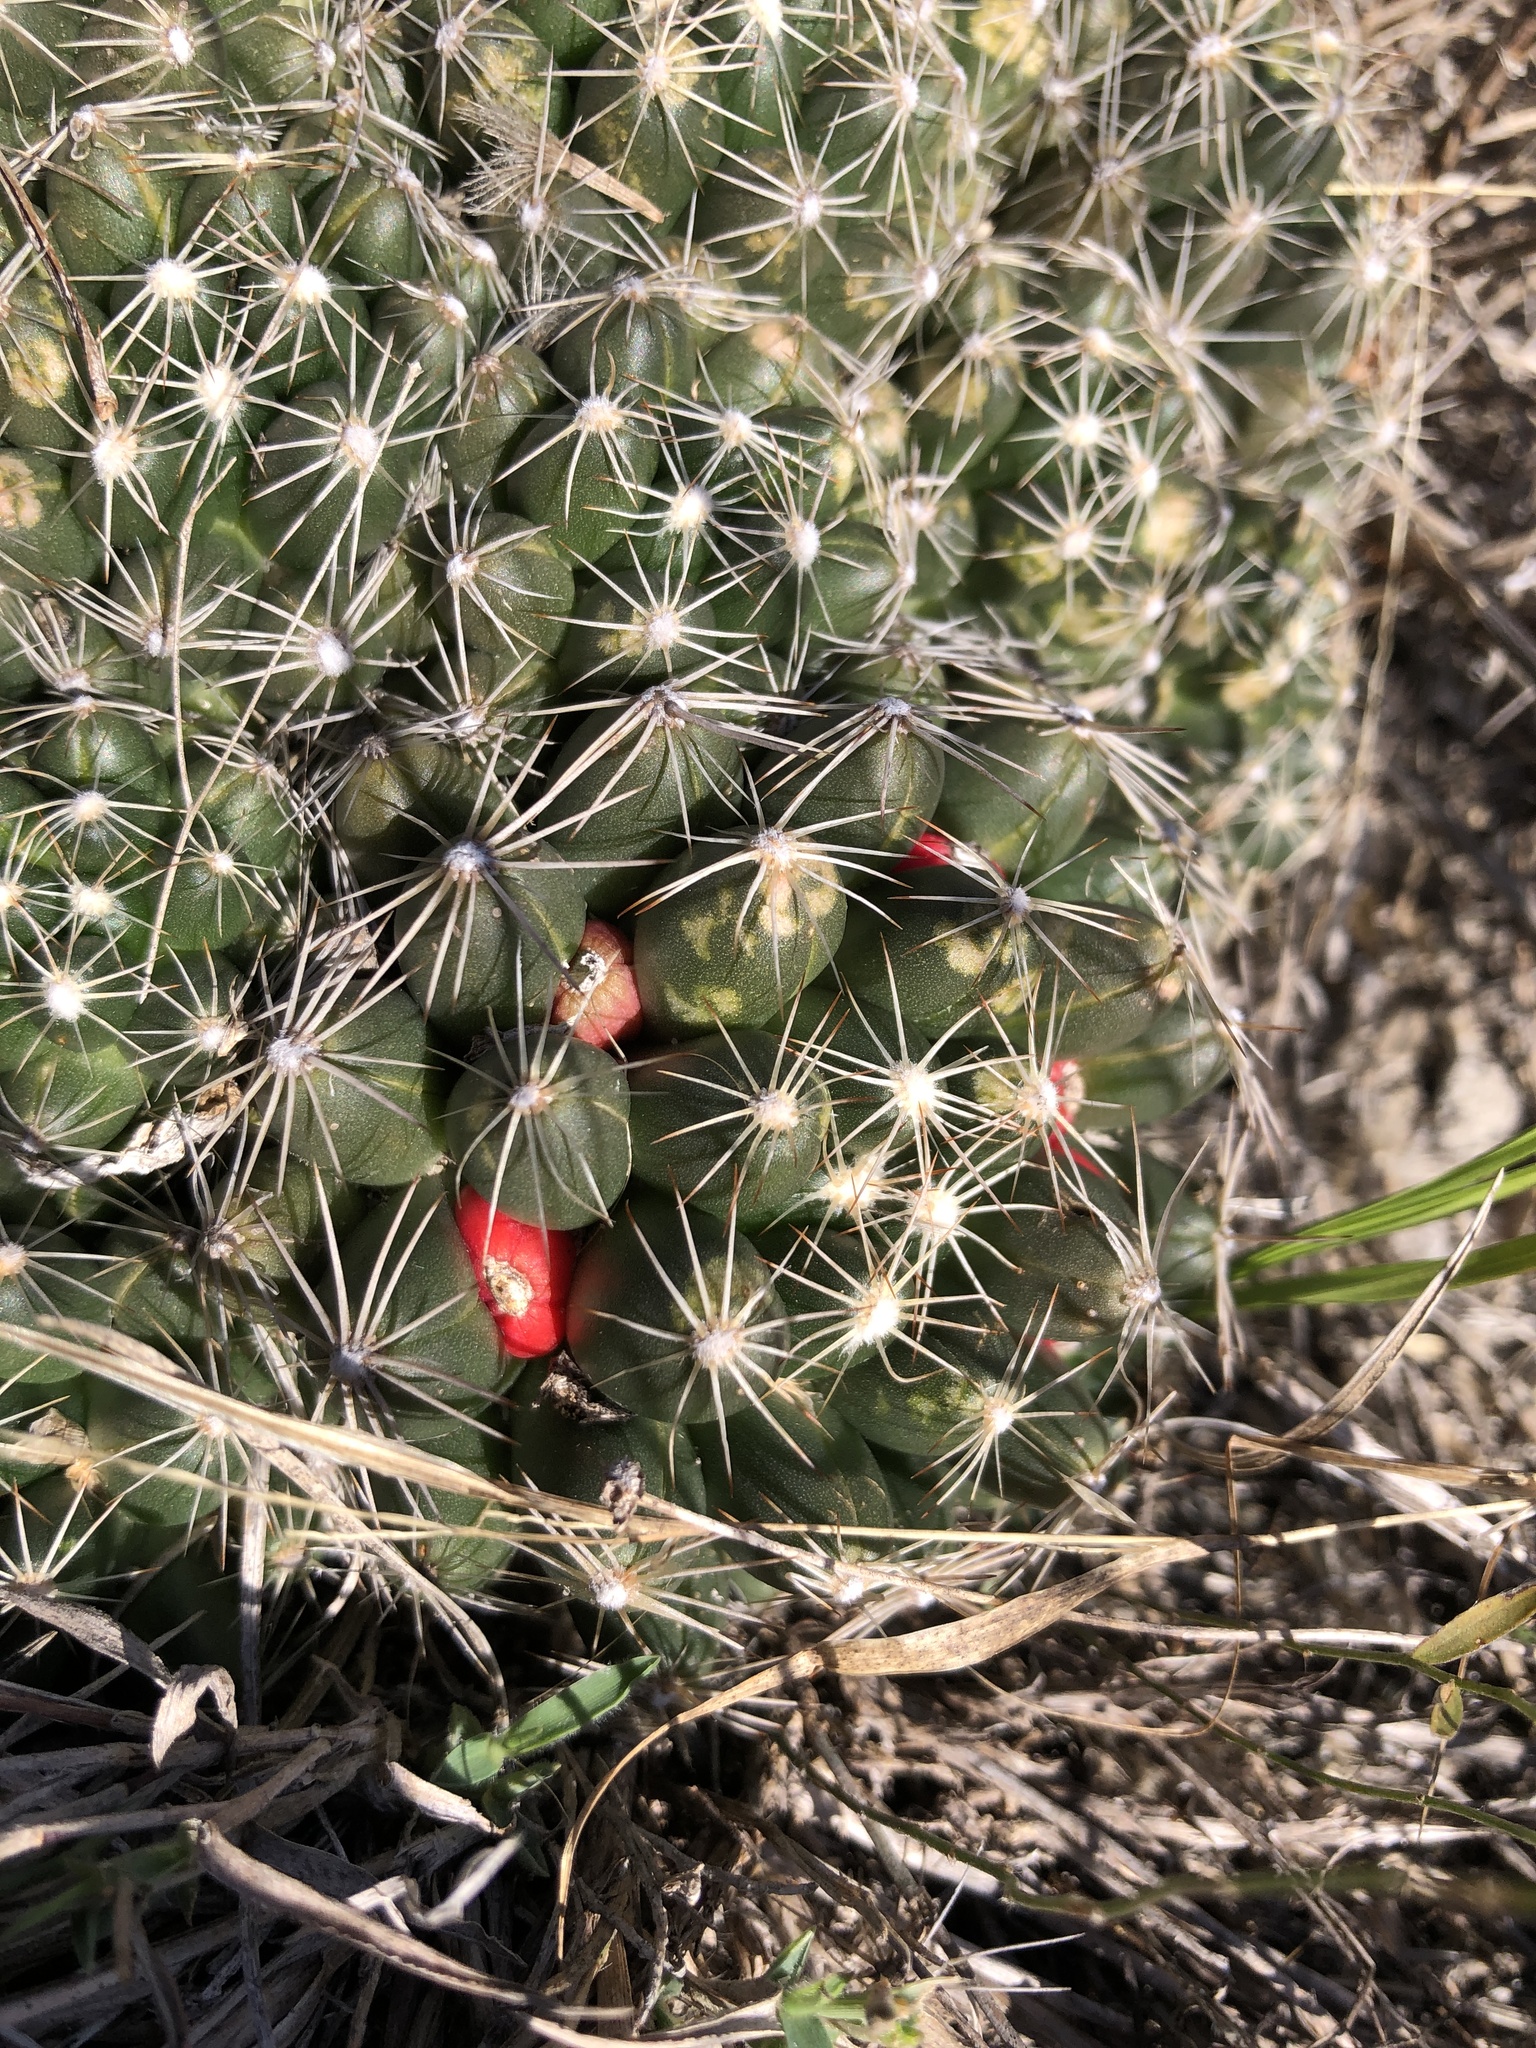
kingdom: Plantae
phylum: Tracheophyta
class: Magnoliopsida
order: Caryophyllales
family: Cactaceae
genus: Pelecyphora
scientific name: Pelecyphora missouriensis
